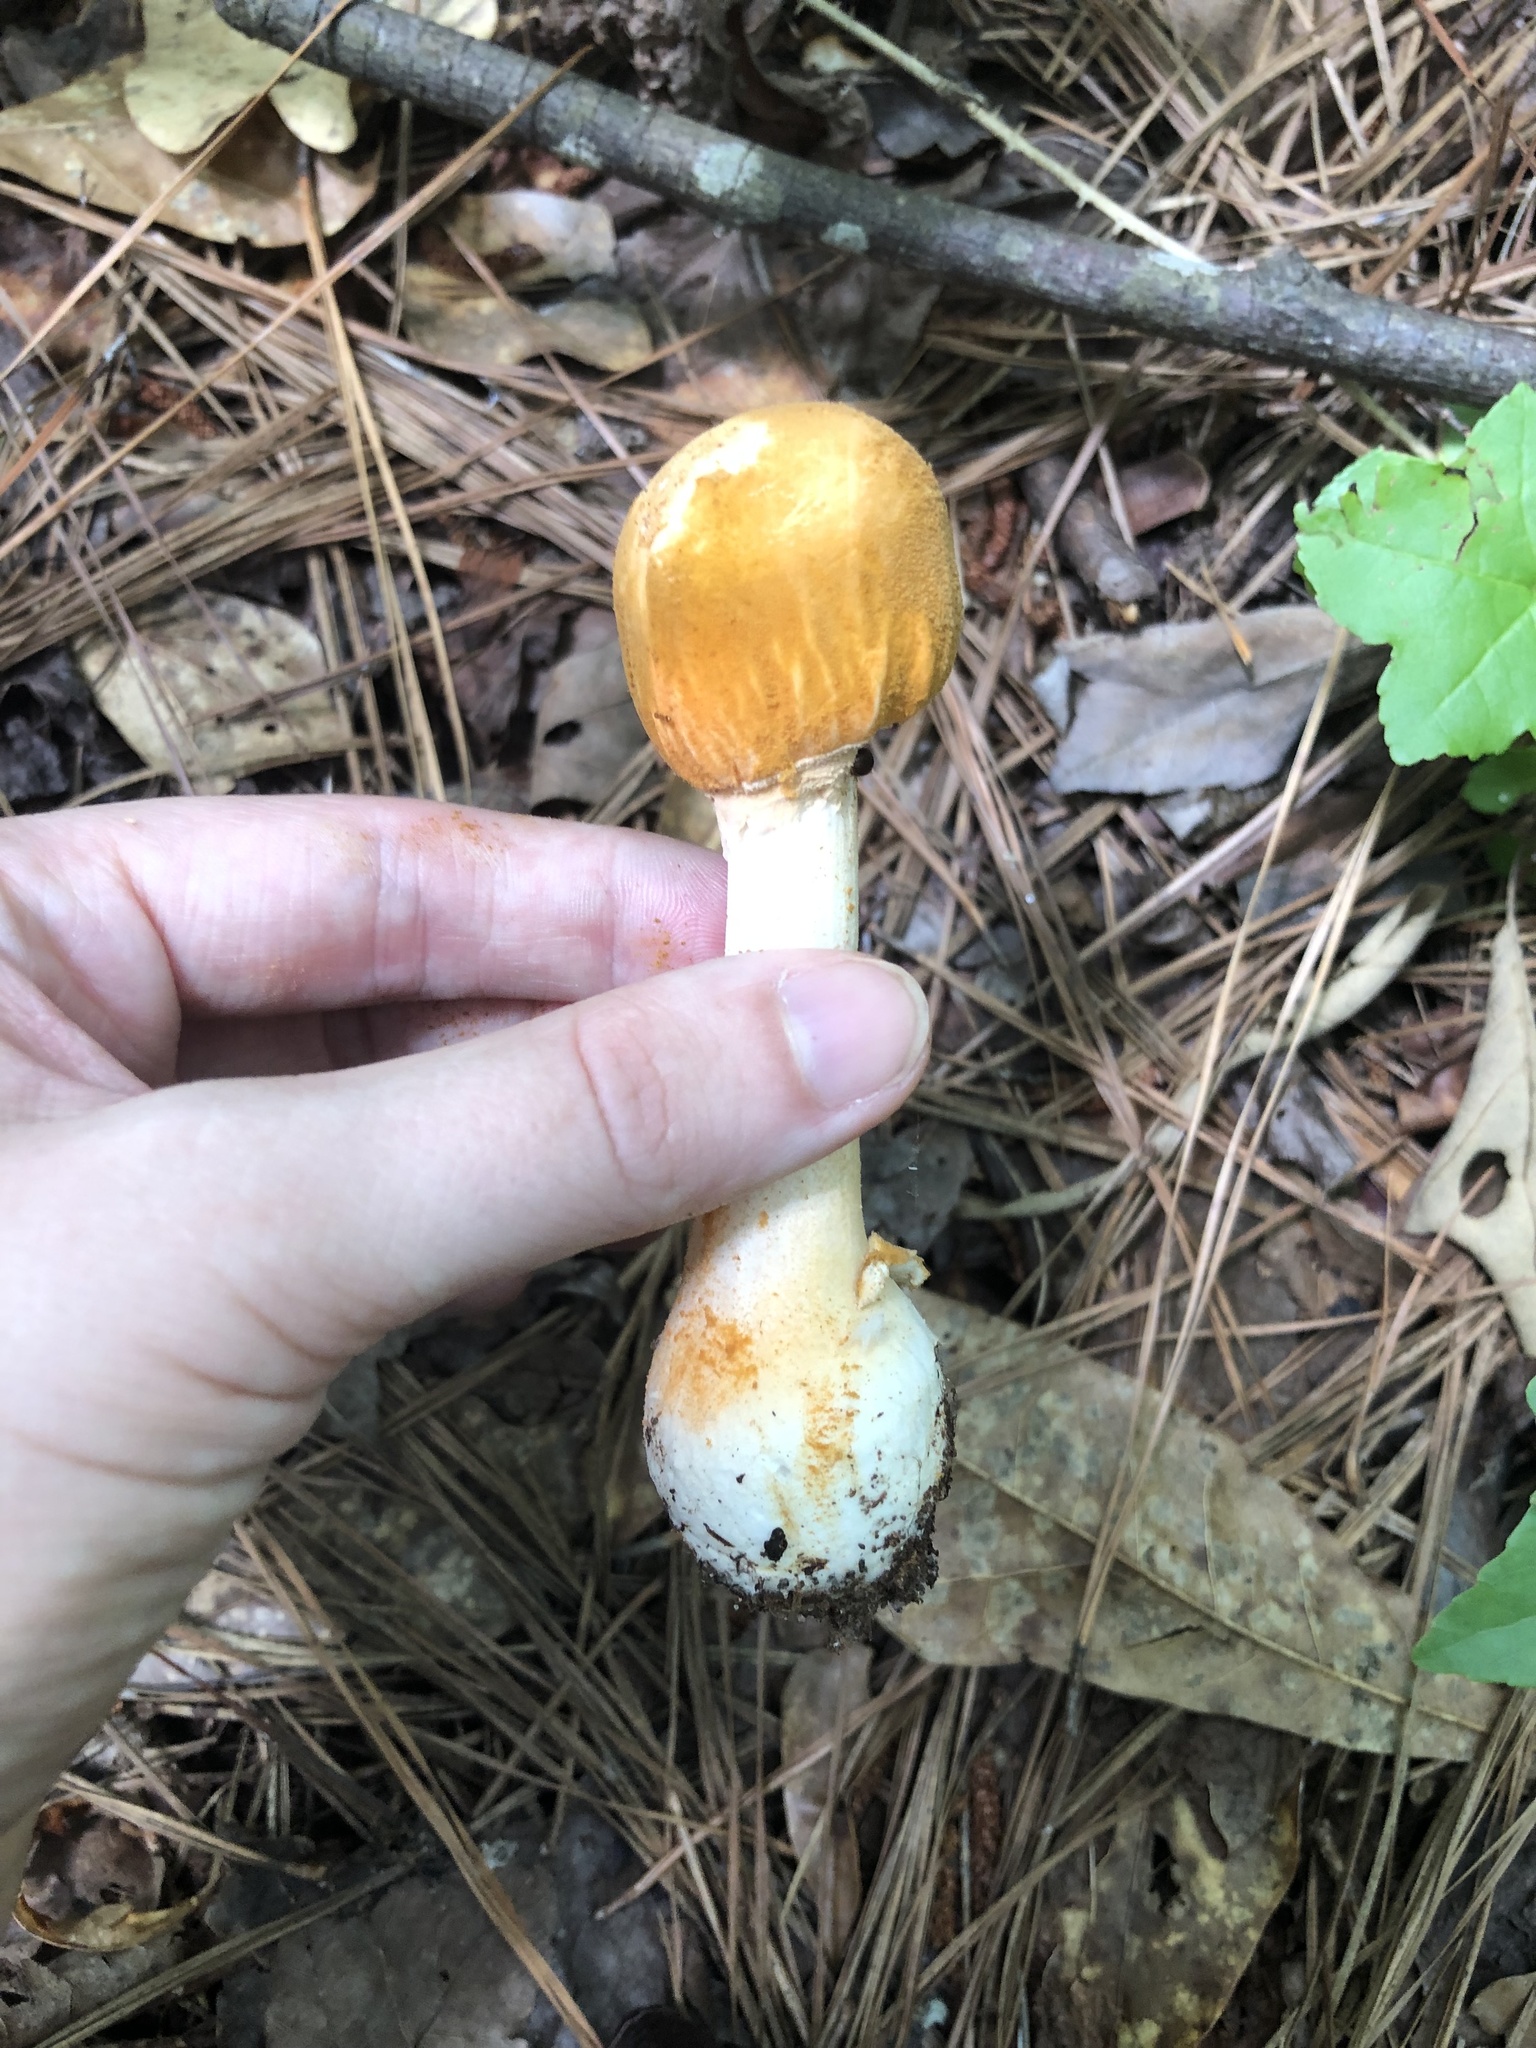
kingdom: Fungi
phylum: Basidiomycota
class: Agaricomycetes
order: Agaricales
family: Amanitaceae
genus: Amanita
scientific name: Amanita roseotincta
